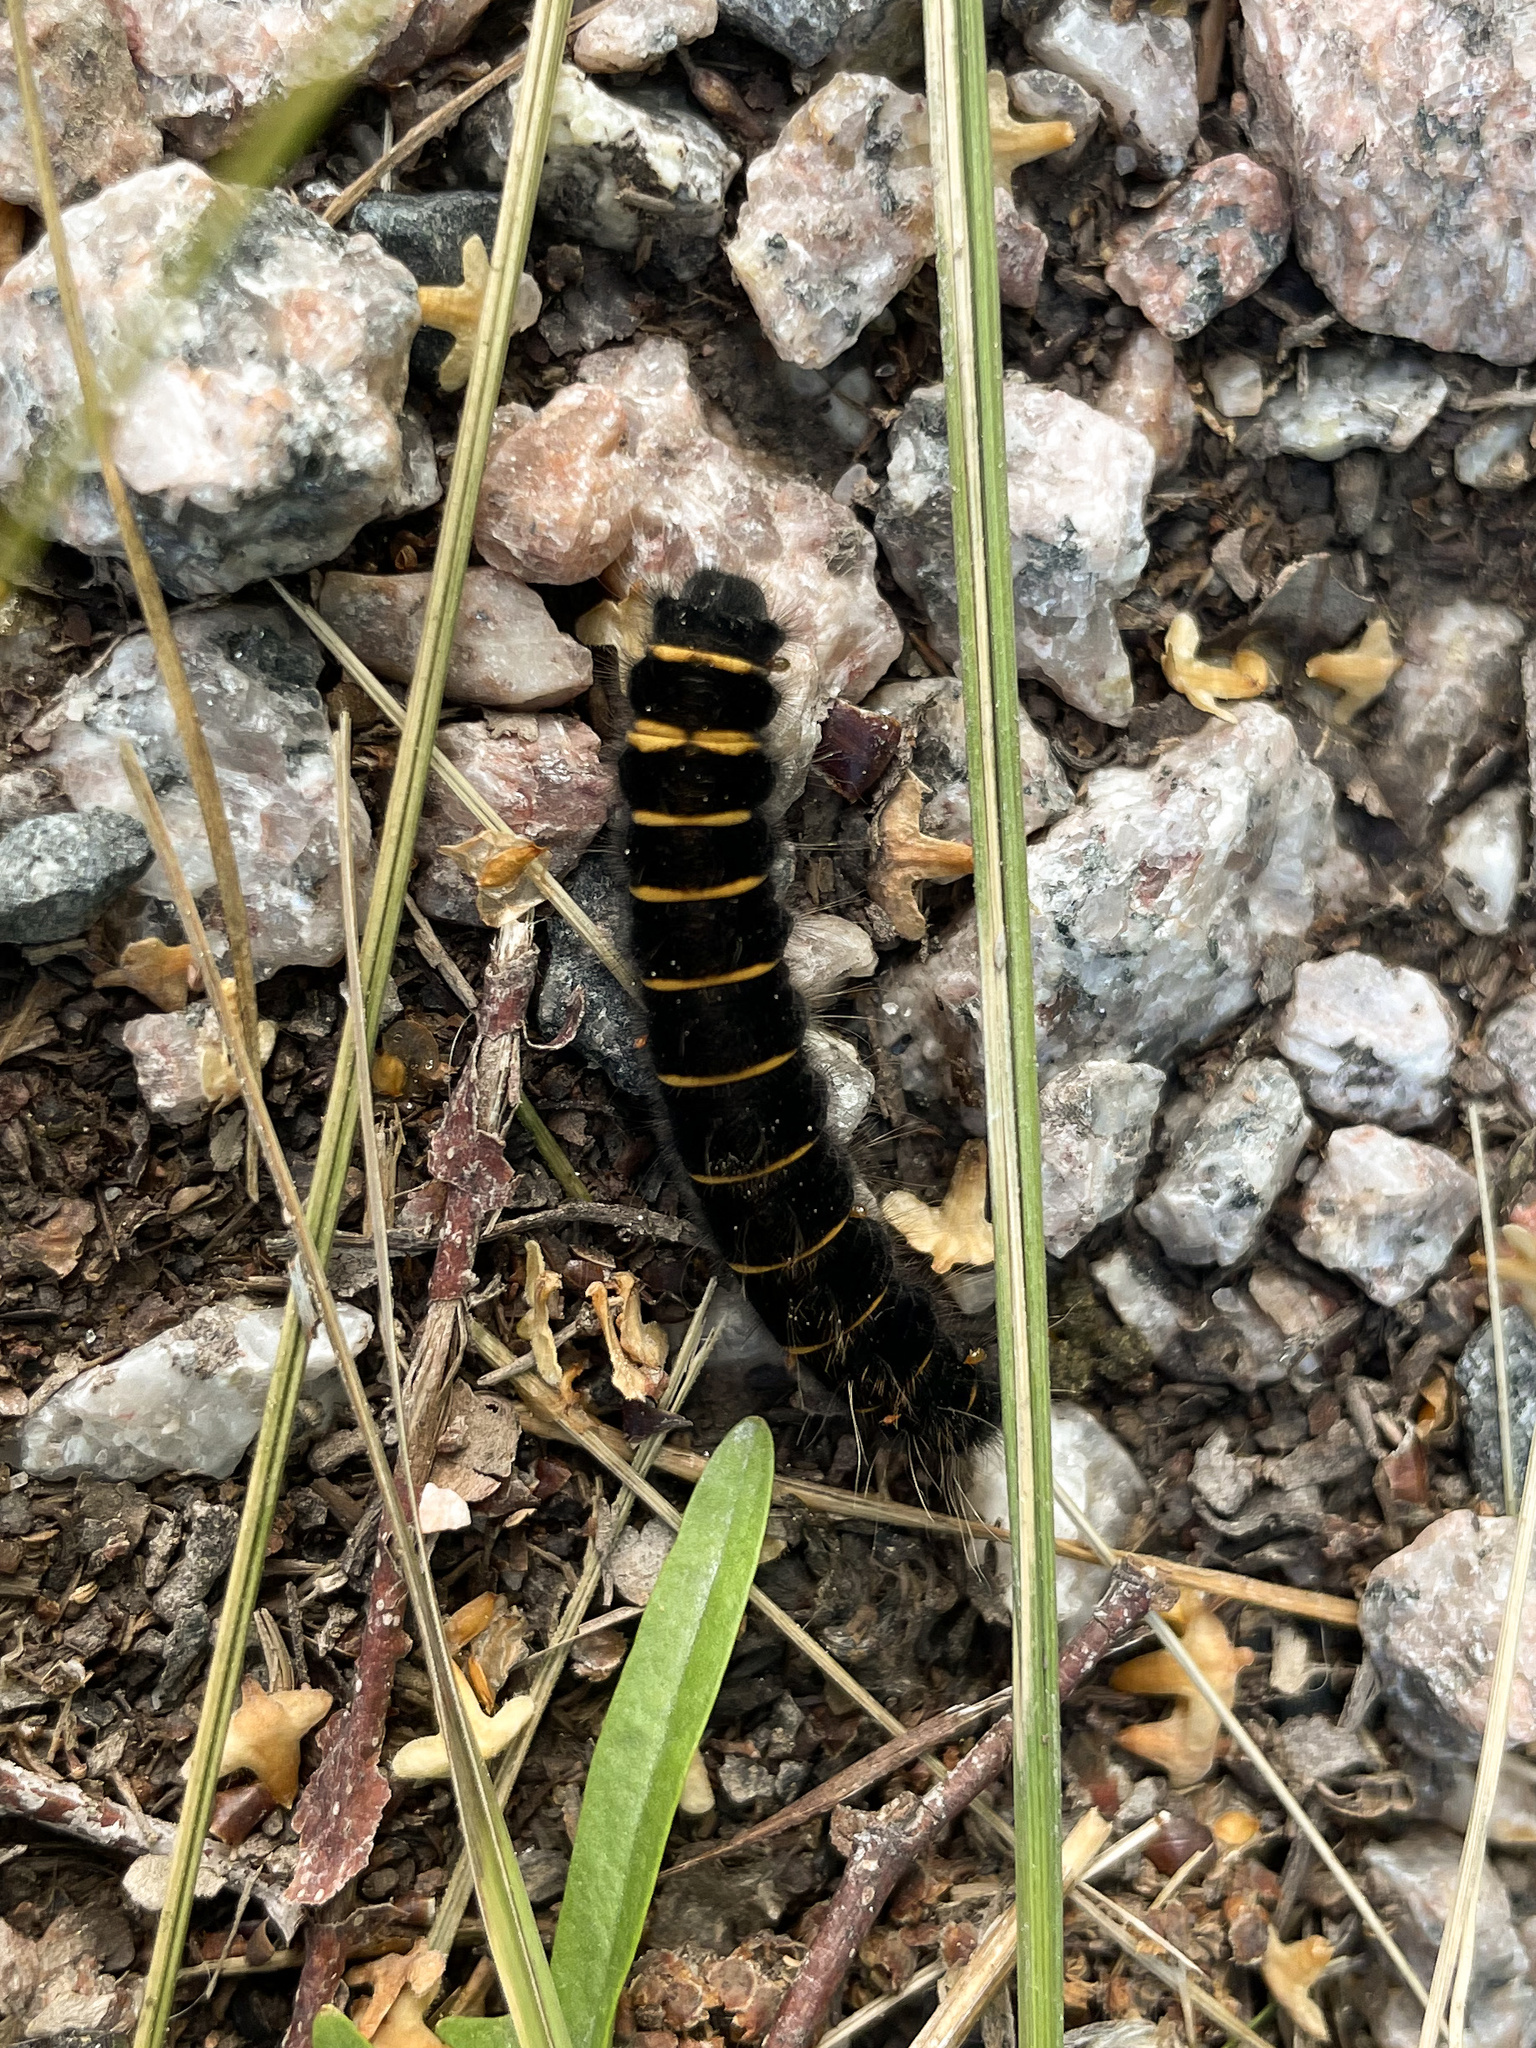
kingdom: Animalia
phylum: Arthropoda
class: Insecta
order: Lepidoptera
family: Lasiocampidae
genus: Macrothylacia
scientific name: Macrothylacia rubi
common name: Fox moth
